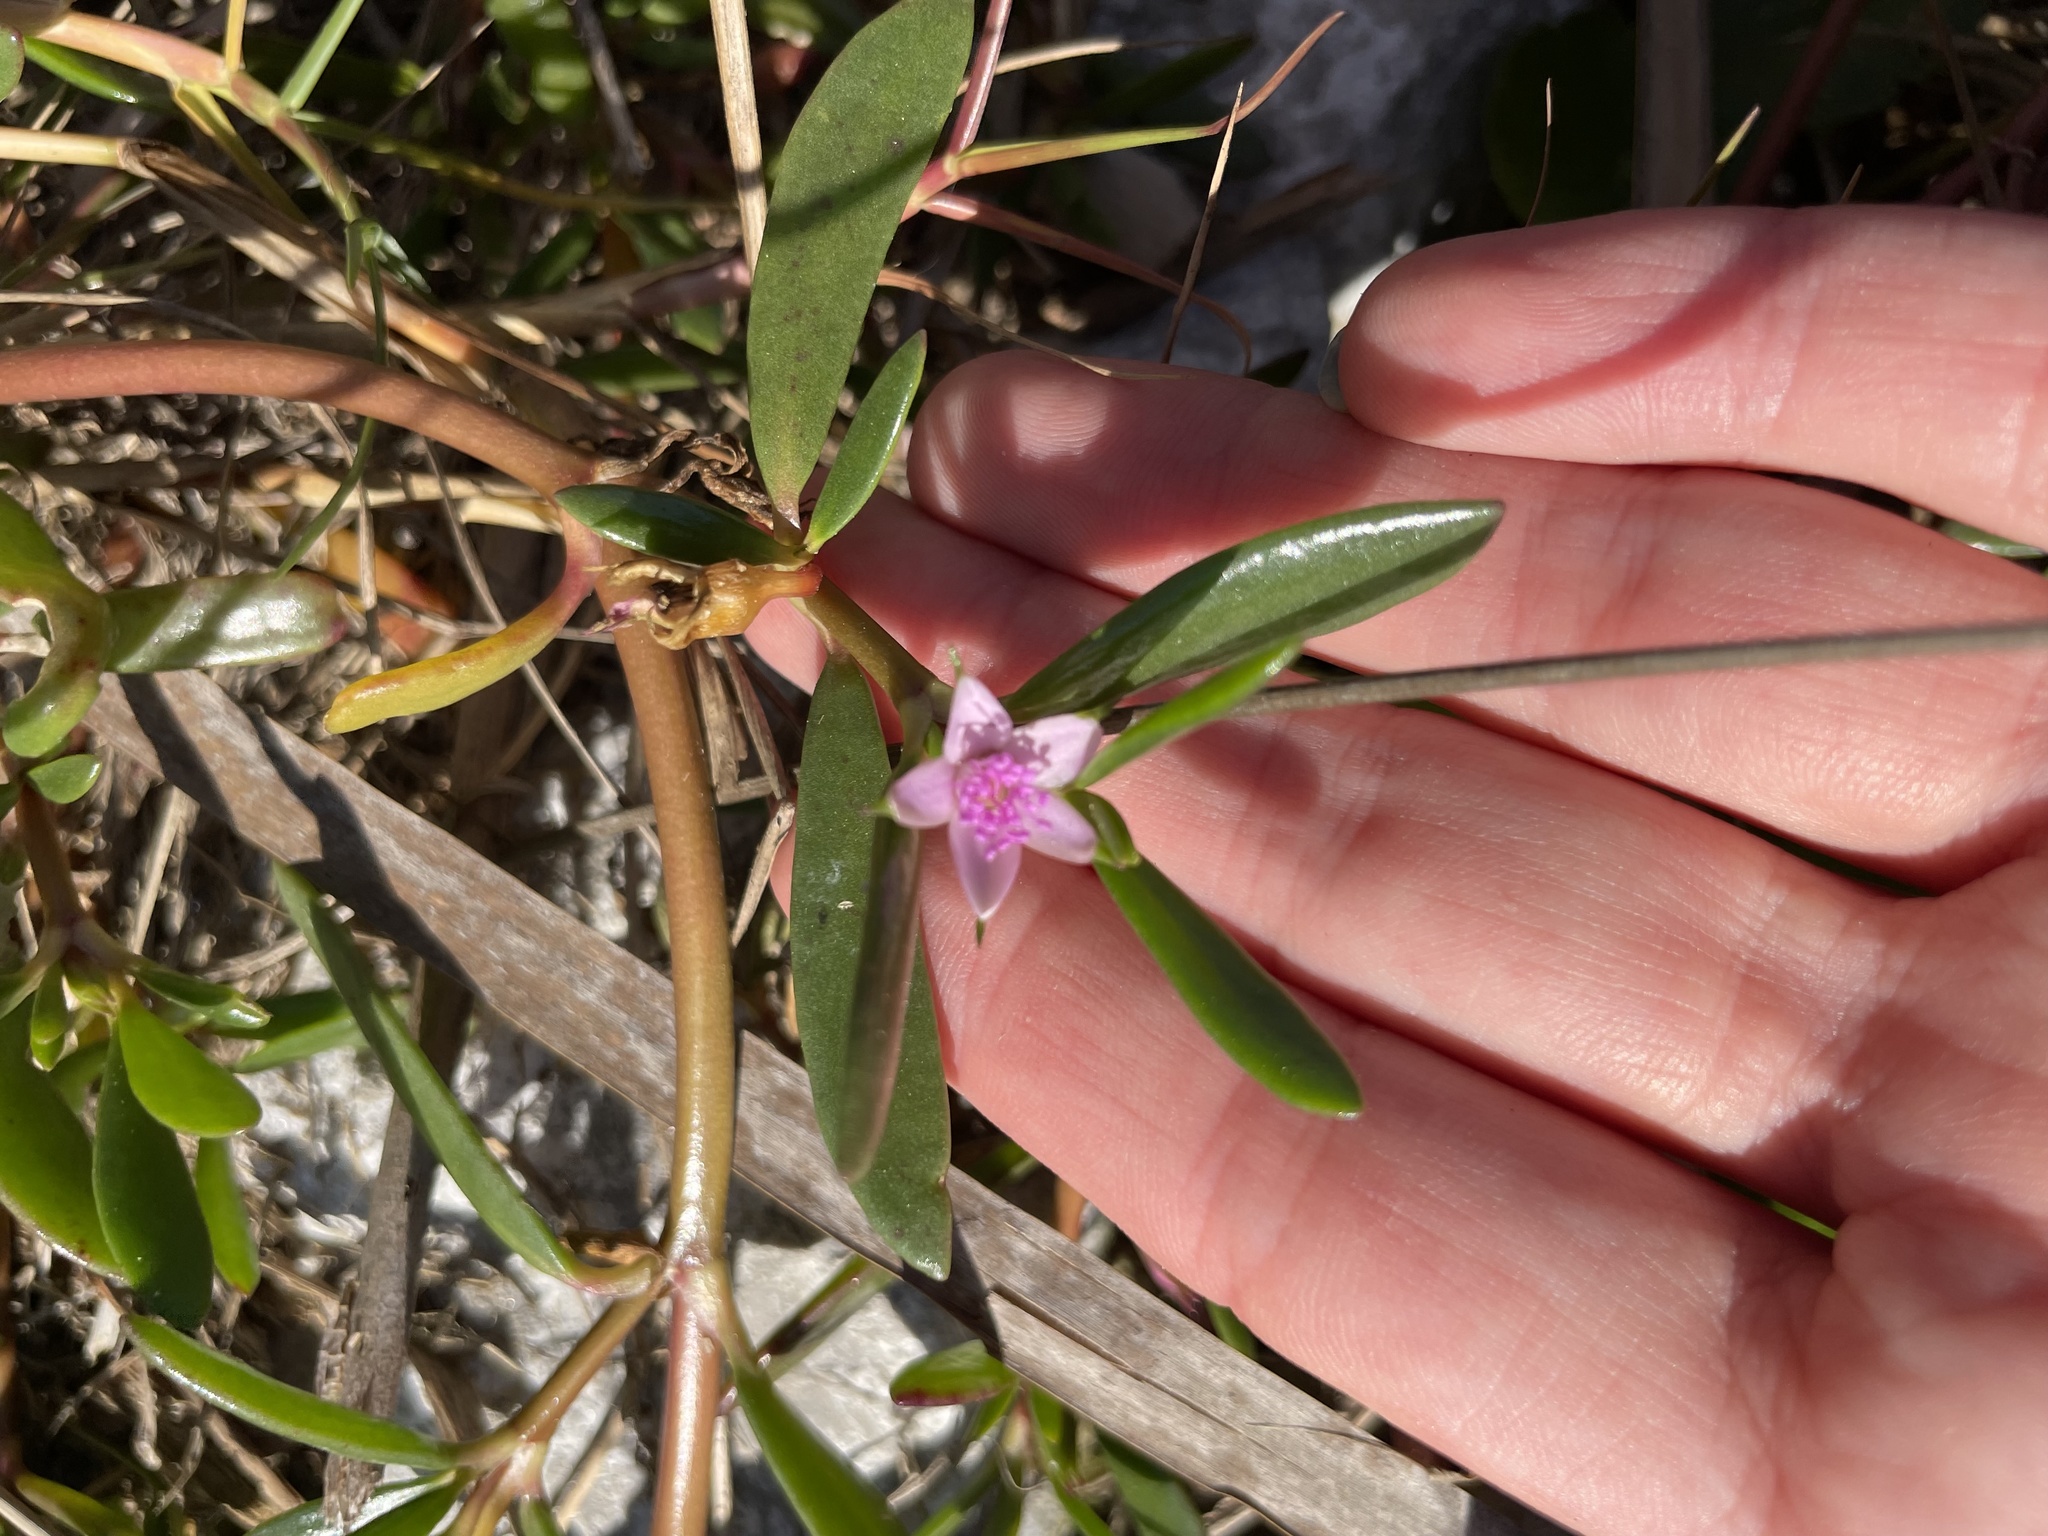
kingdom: Plantae
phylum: Tracheophyta
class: Magnoliopsida
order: Caryophyllales
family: Aizoaceae
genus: Sesuvium
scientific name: Sesuvium portulacastrum
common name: Sea-purslane
